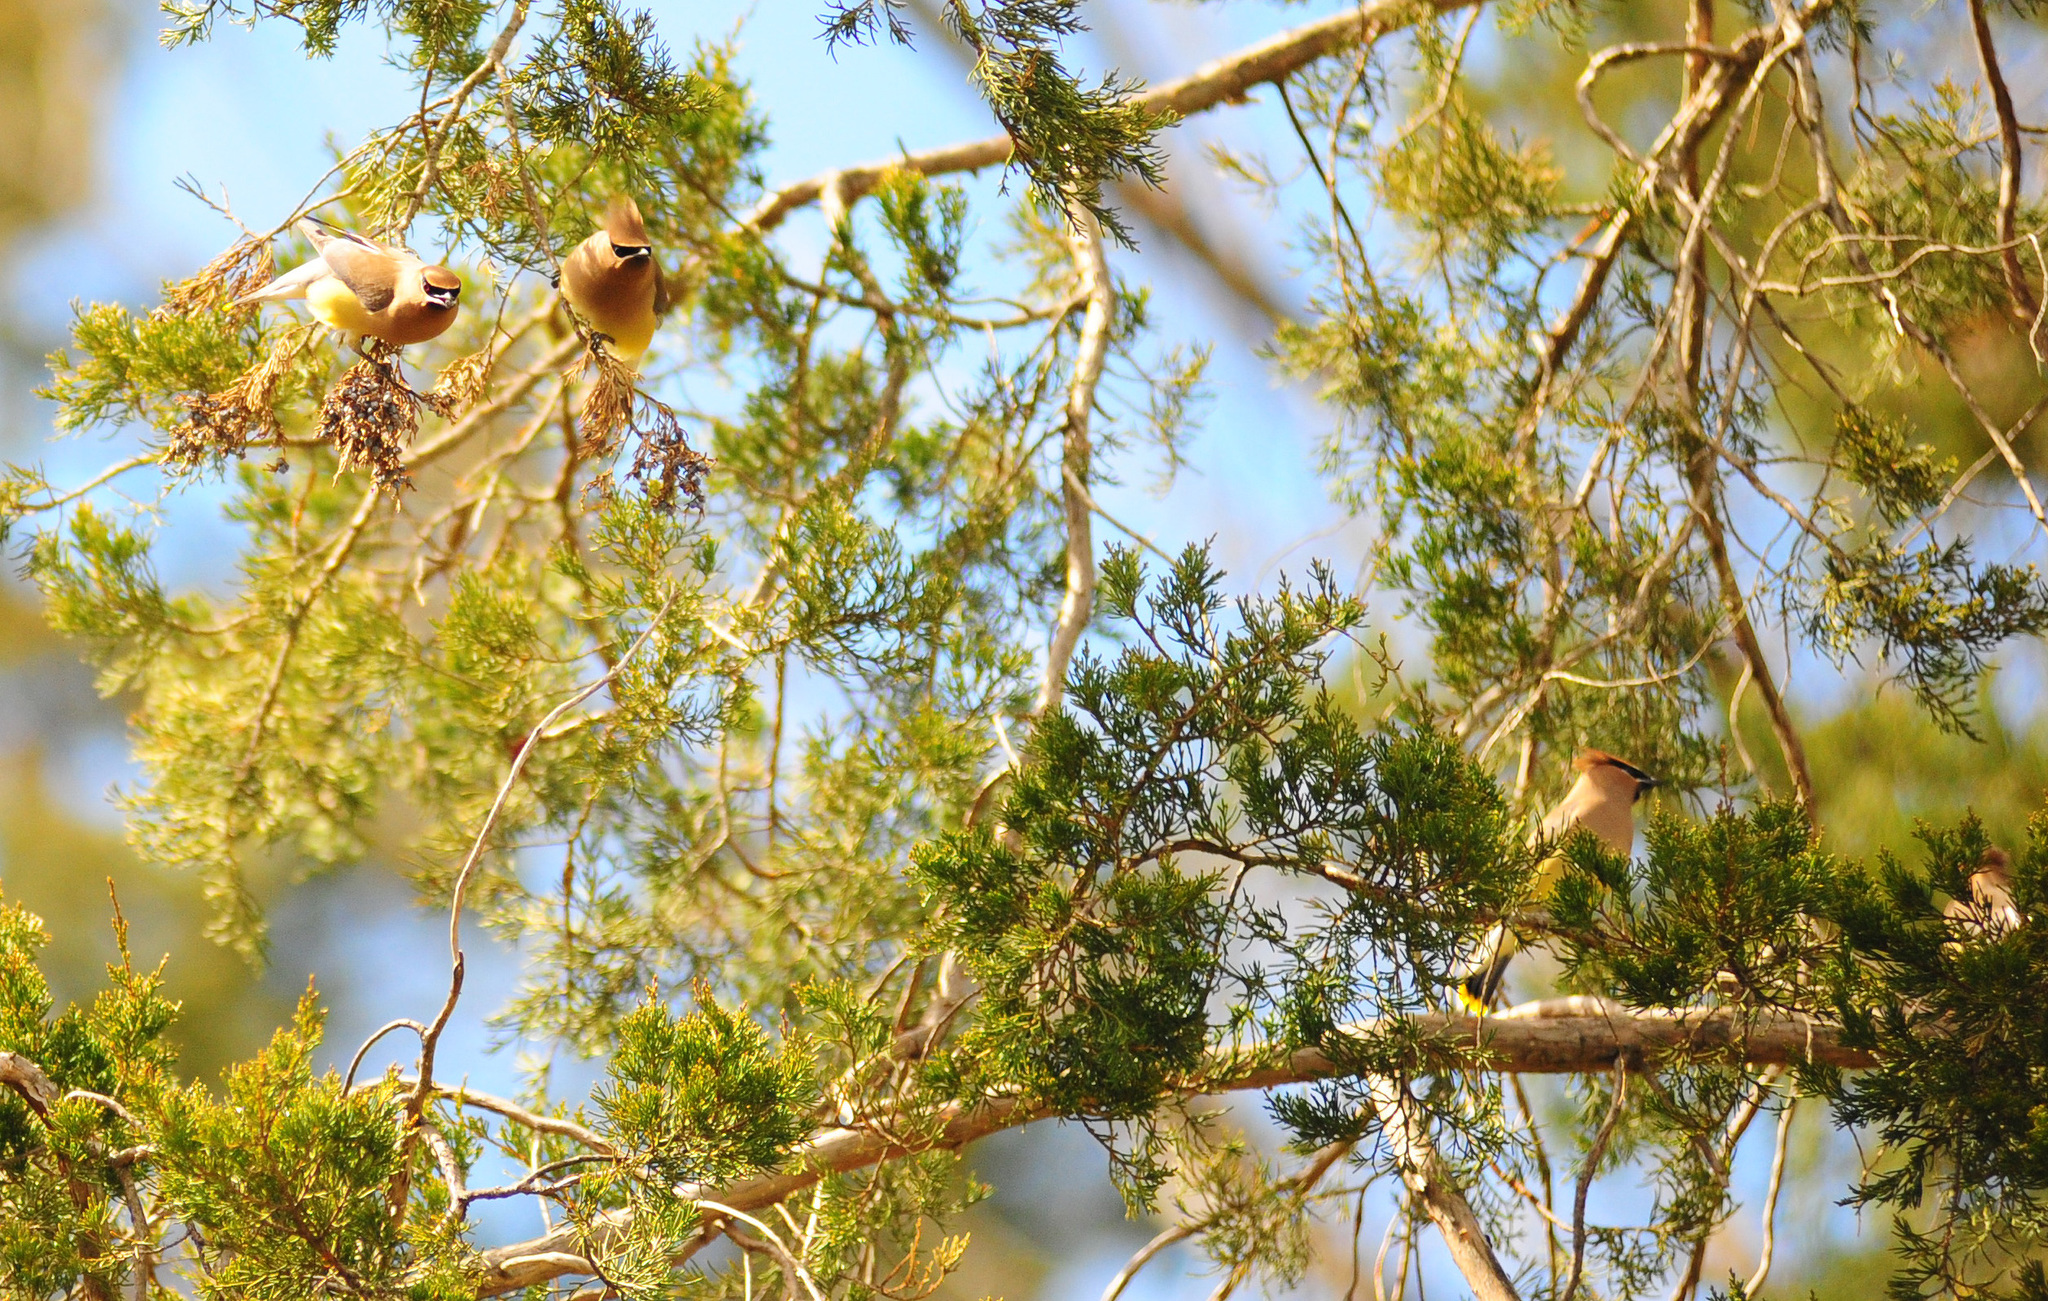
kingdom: Animalia
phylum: Chordata
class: Aves
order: Passeriformes
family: Bombycillidae
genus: Bombycilla
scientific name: Bombycilla cedrorum
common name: Cedar waxwing
